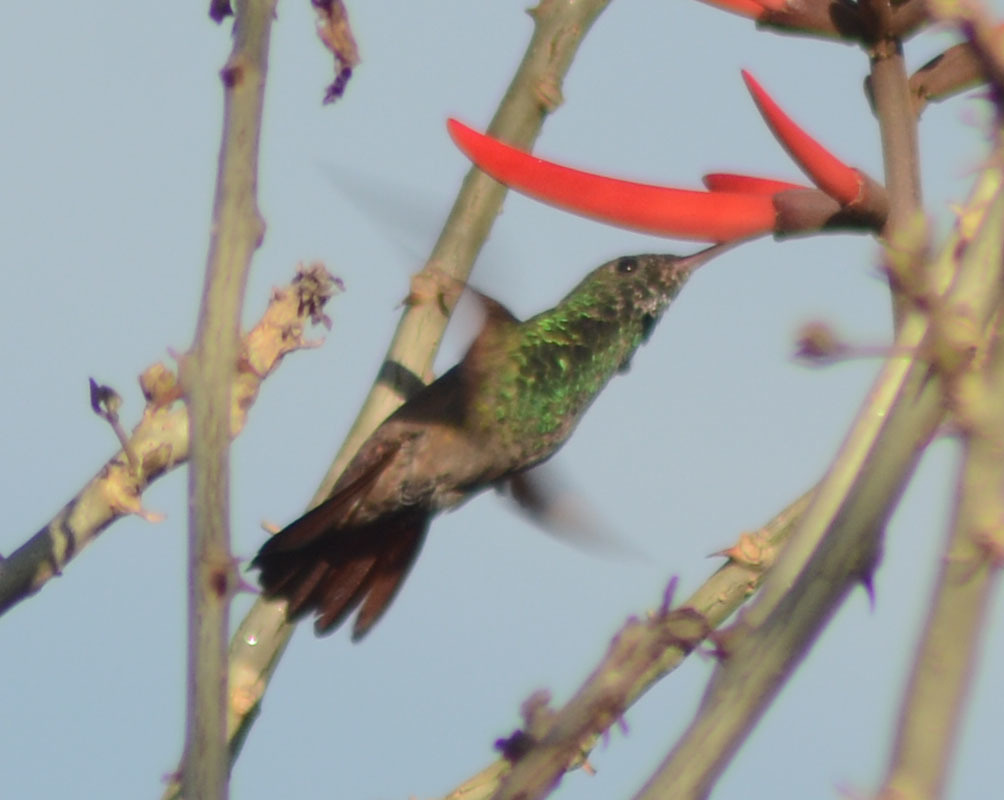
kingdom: Animalia
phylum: Chordata
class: Aves
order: Apodiformes
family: Trochilidae
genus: Saucerottia
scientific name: Saucerottia beryllina
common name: Berylline hummingbird
